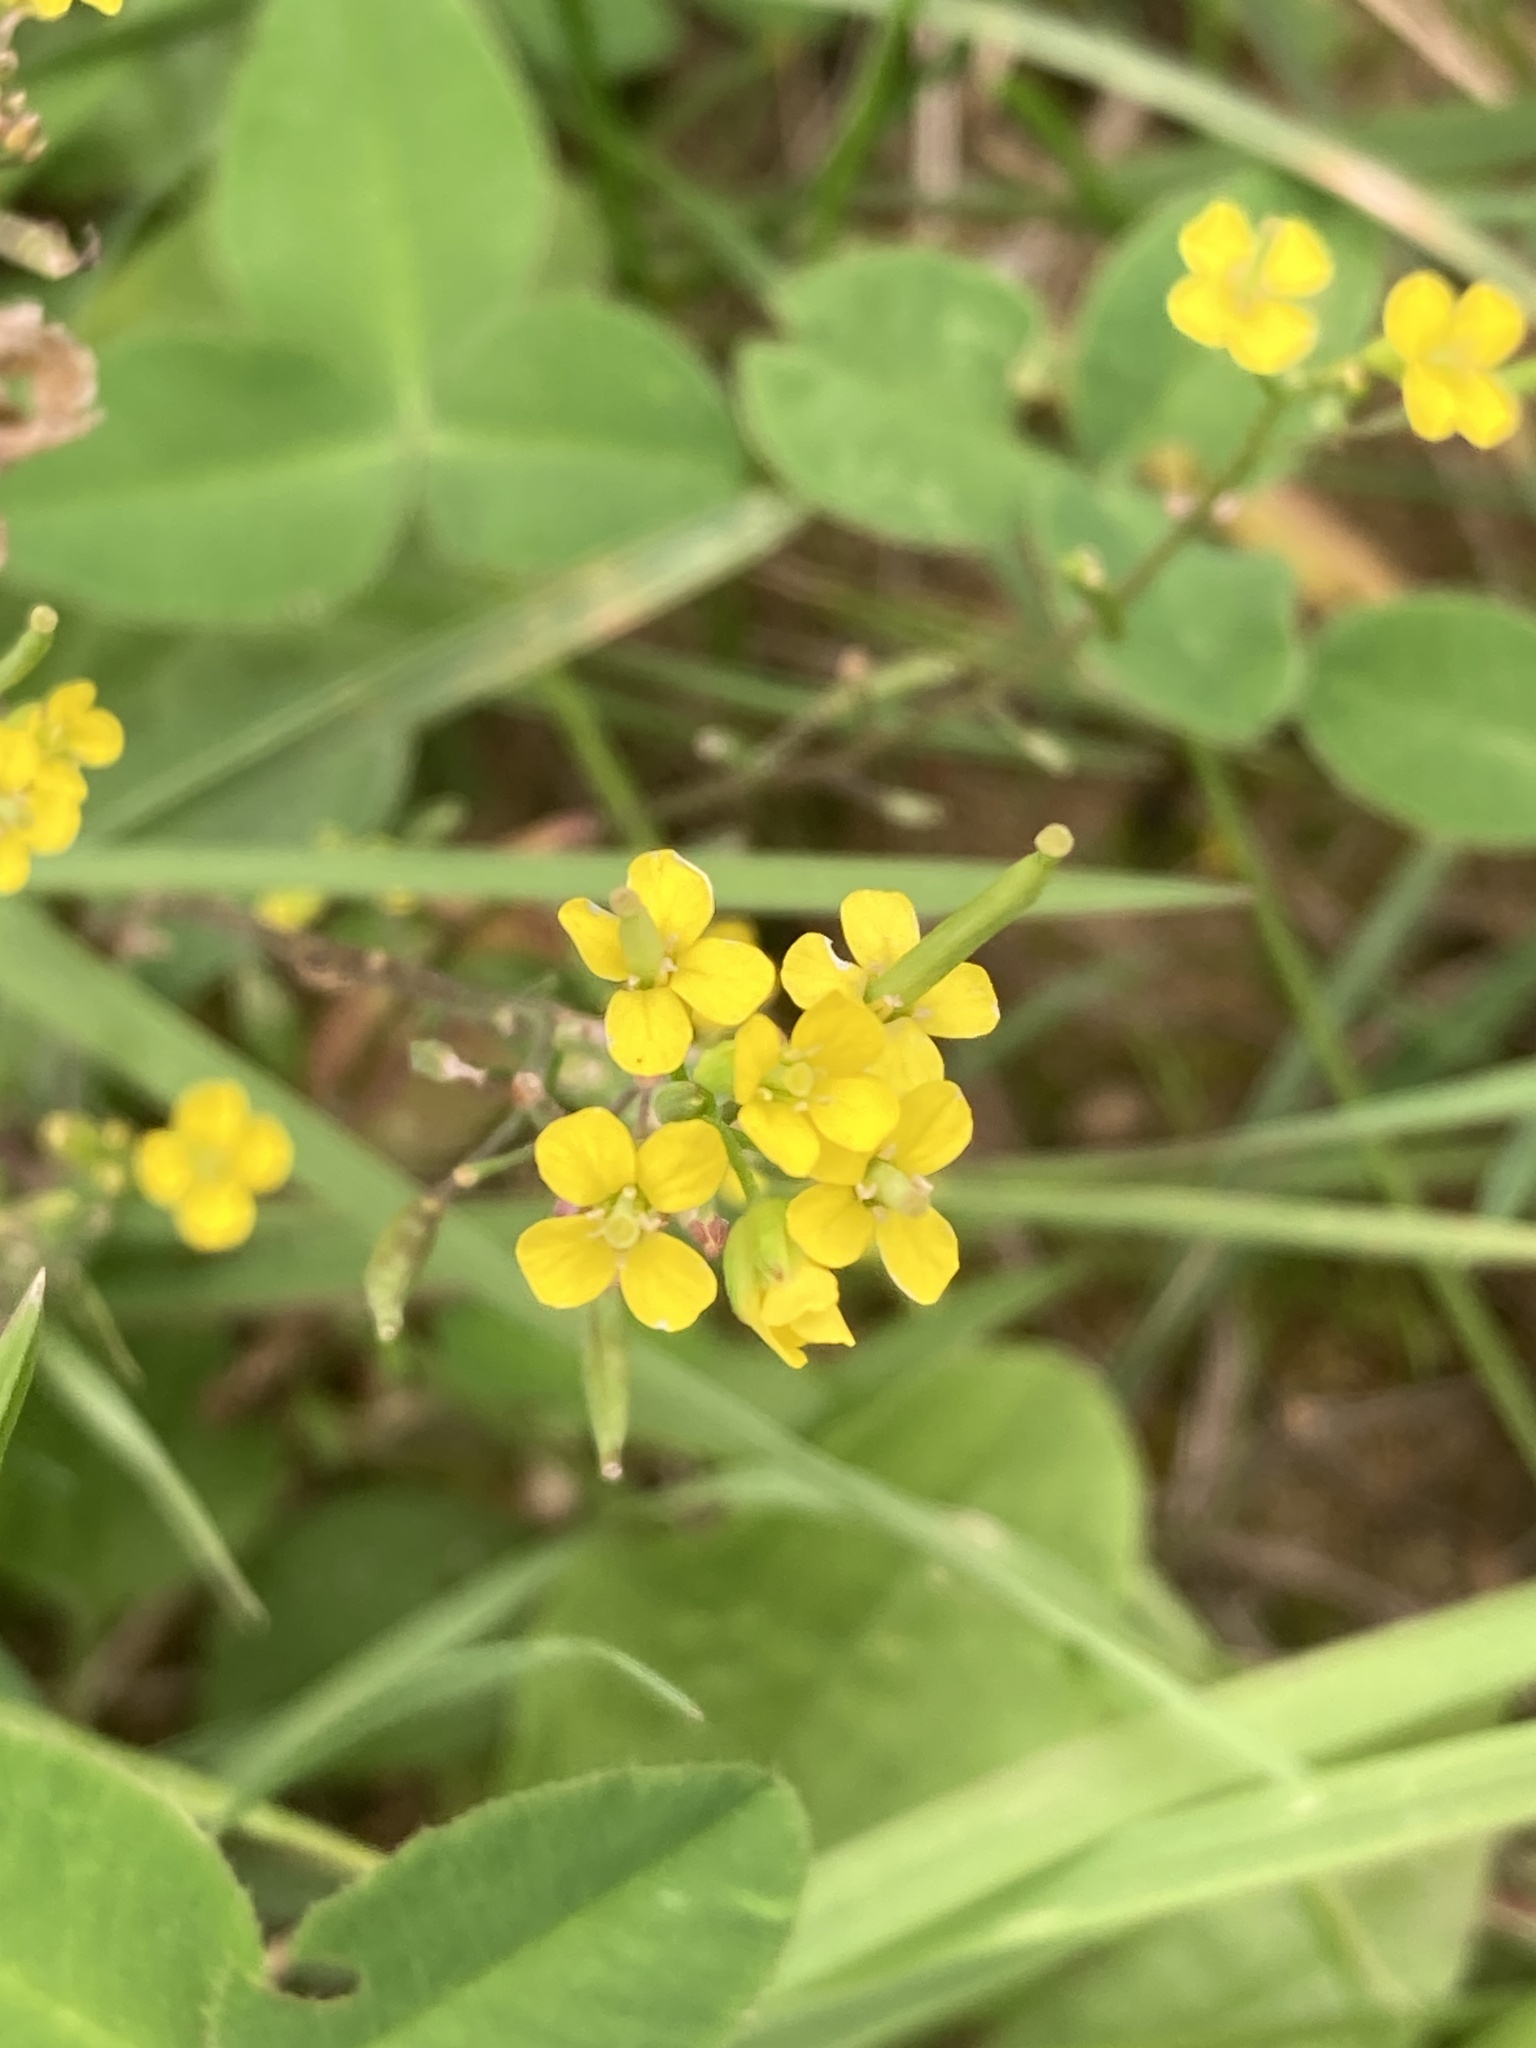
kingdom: Plantae
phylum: Tracheophyta
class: Magnoliopsida
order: Brassicales
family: Brassicaceae
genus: Erysimum
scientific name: Erysimum cheiranthoides
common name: Treacle mustard
